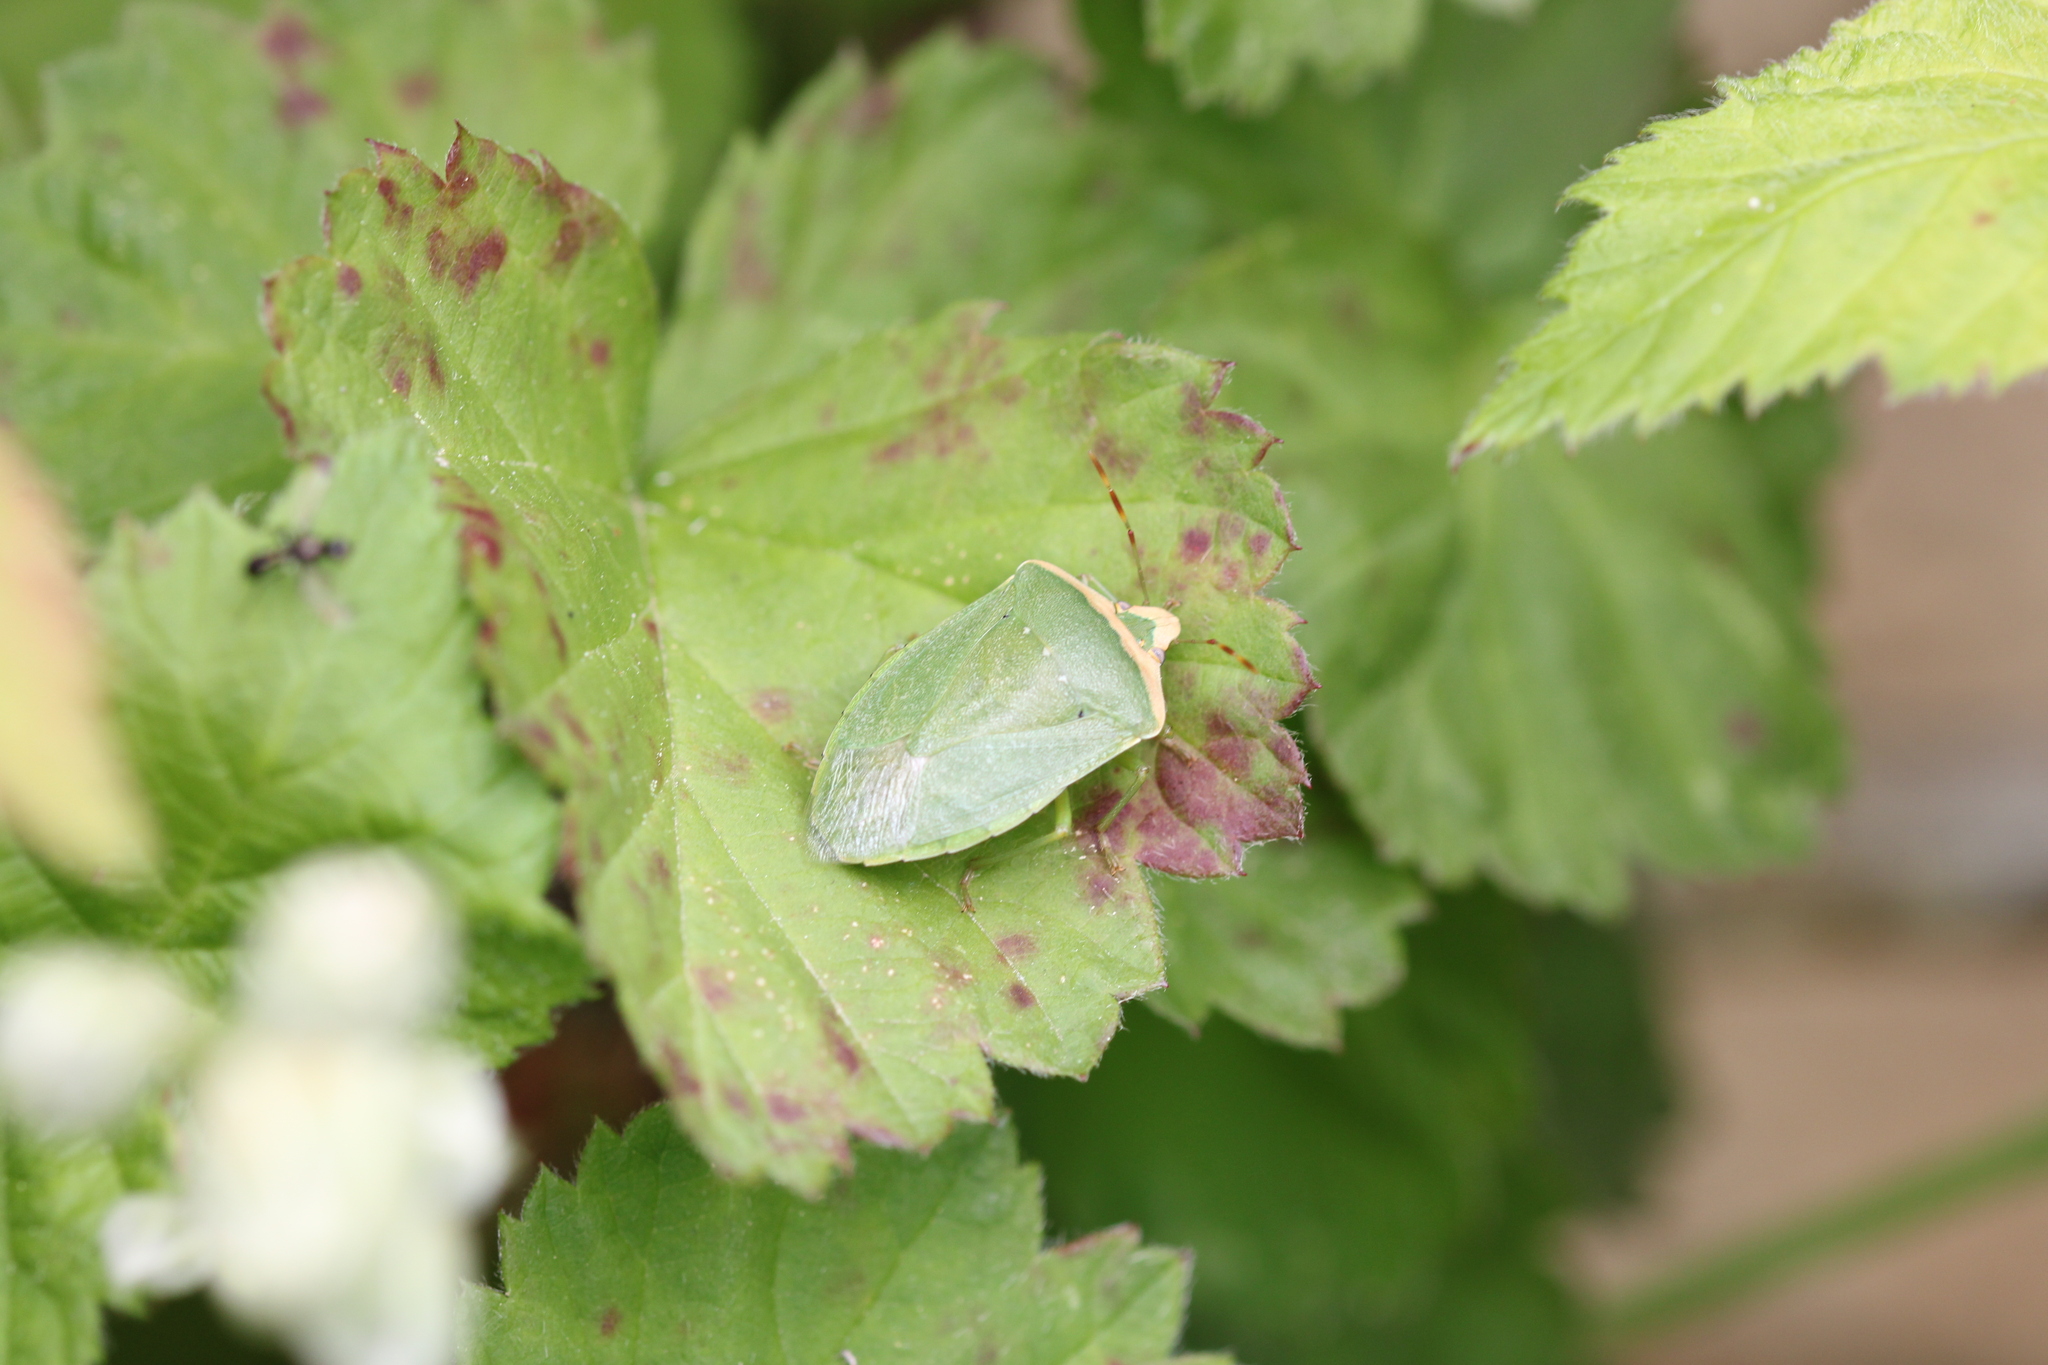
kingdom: Animalia
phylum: Arthropoda
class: Insecta
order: Hemiptera
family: Pentatomidae
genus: Nezara
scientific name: Nezara viridula
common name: Southern green stink bug
